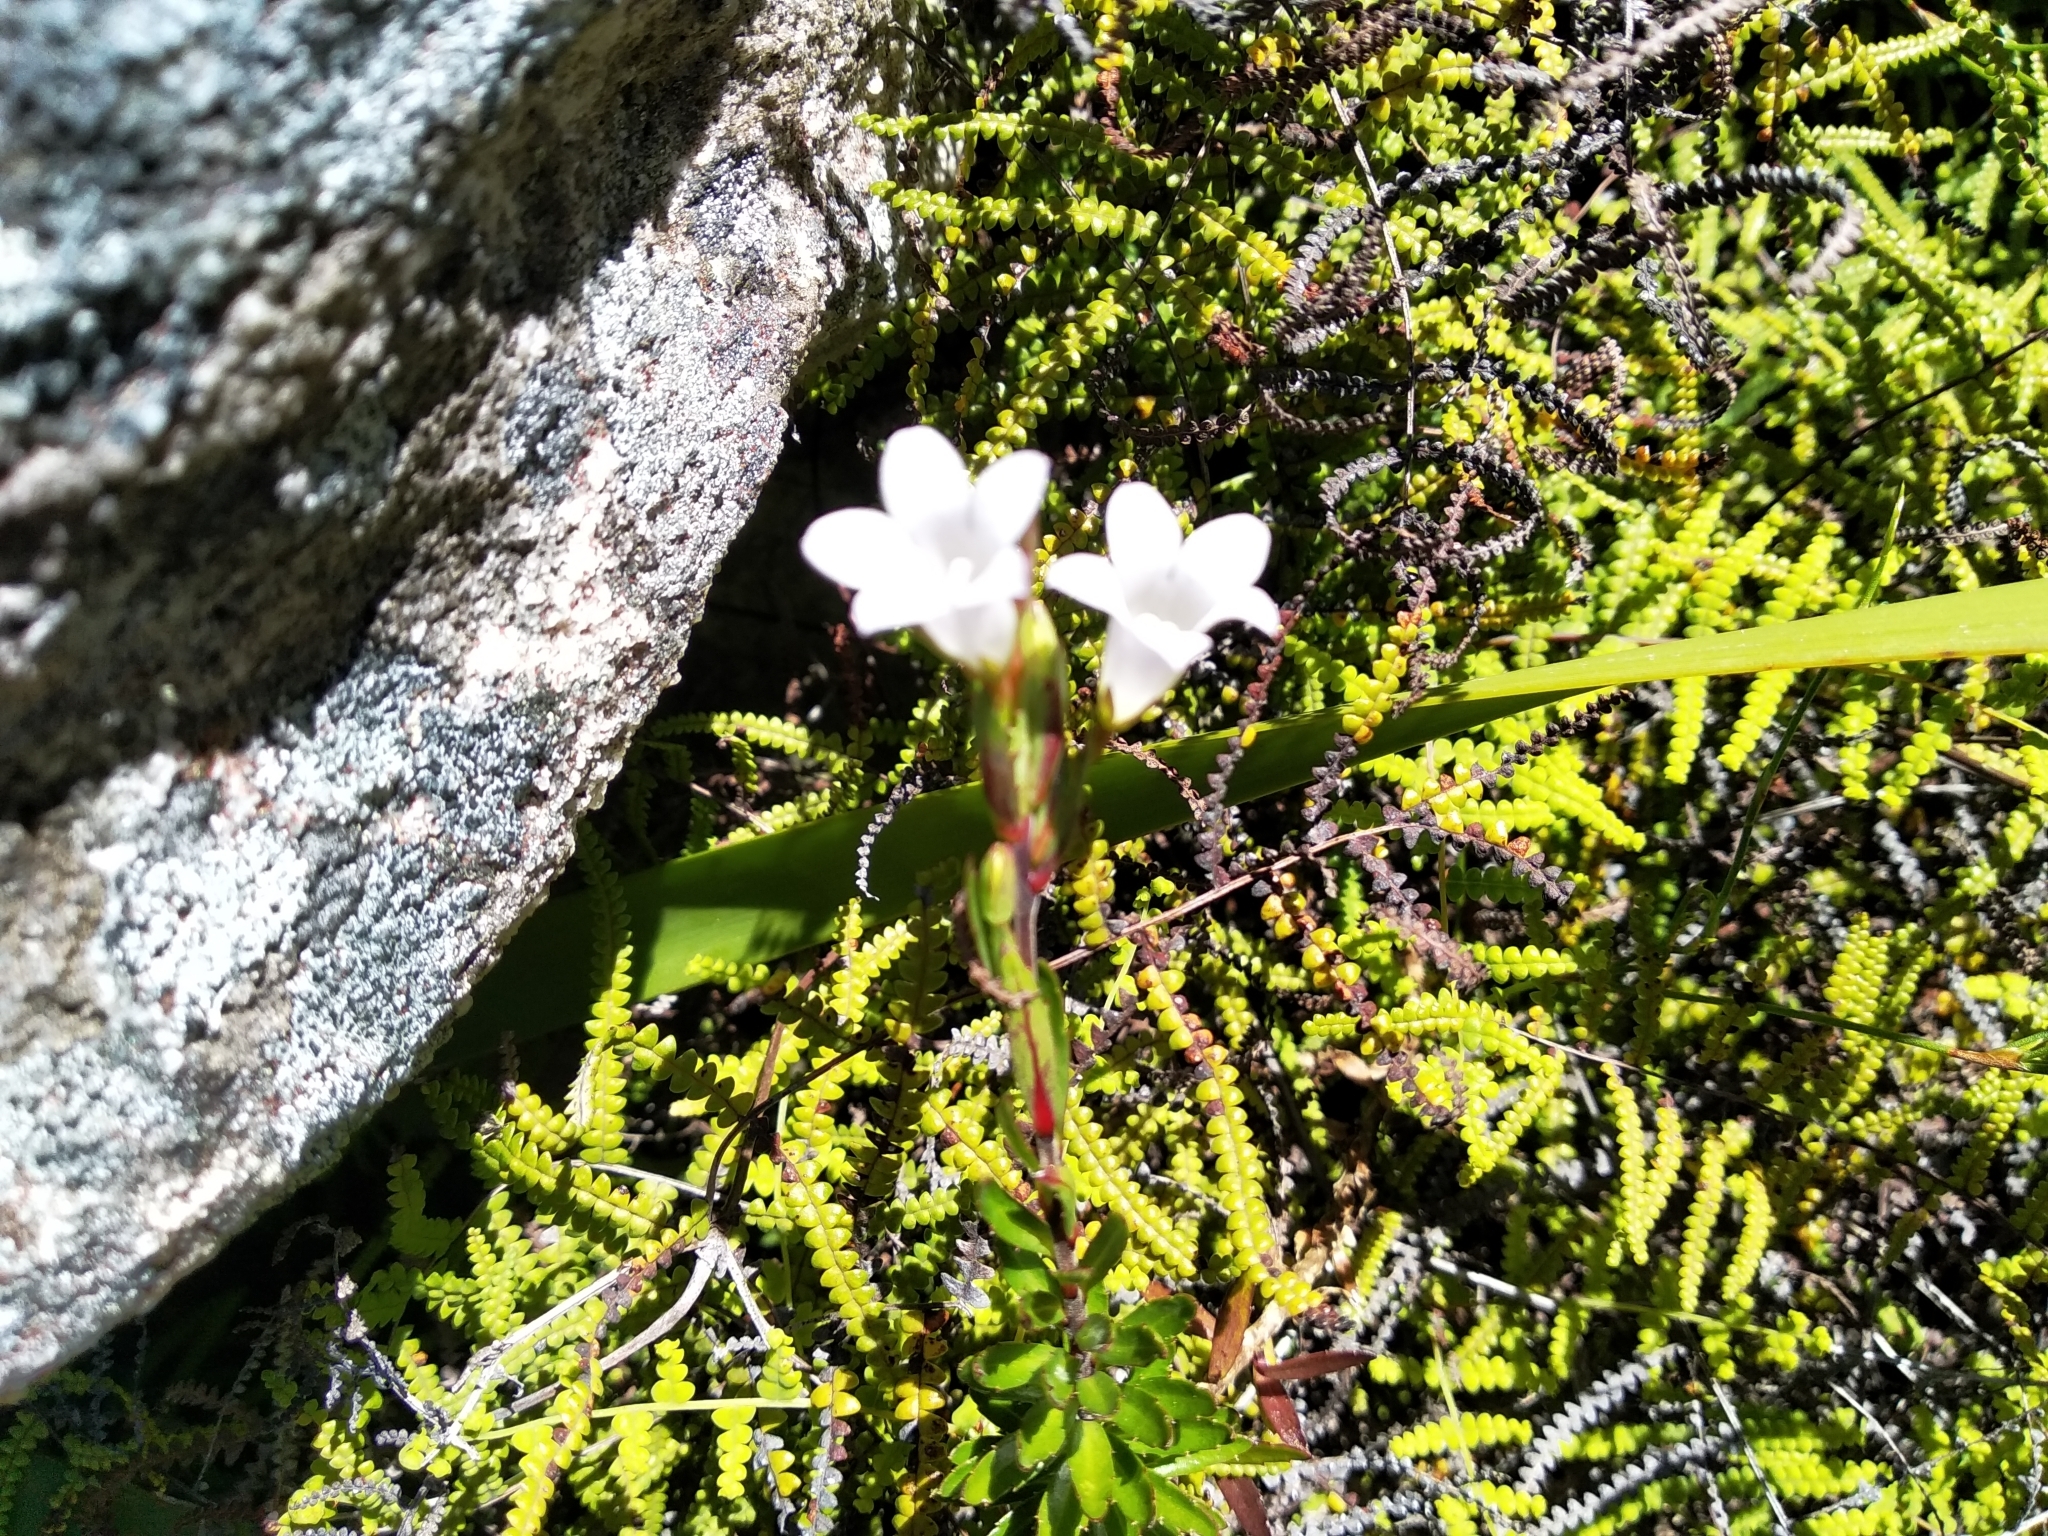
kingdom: Plantae
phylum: Tracheophyta
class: Magnoliopsida
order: Asterales
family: Campanulaceae
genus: Prismatocarpus
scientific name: Prismatocarpus nitidus
